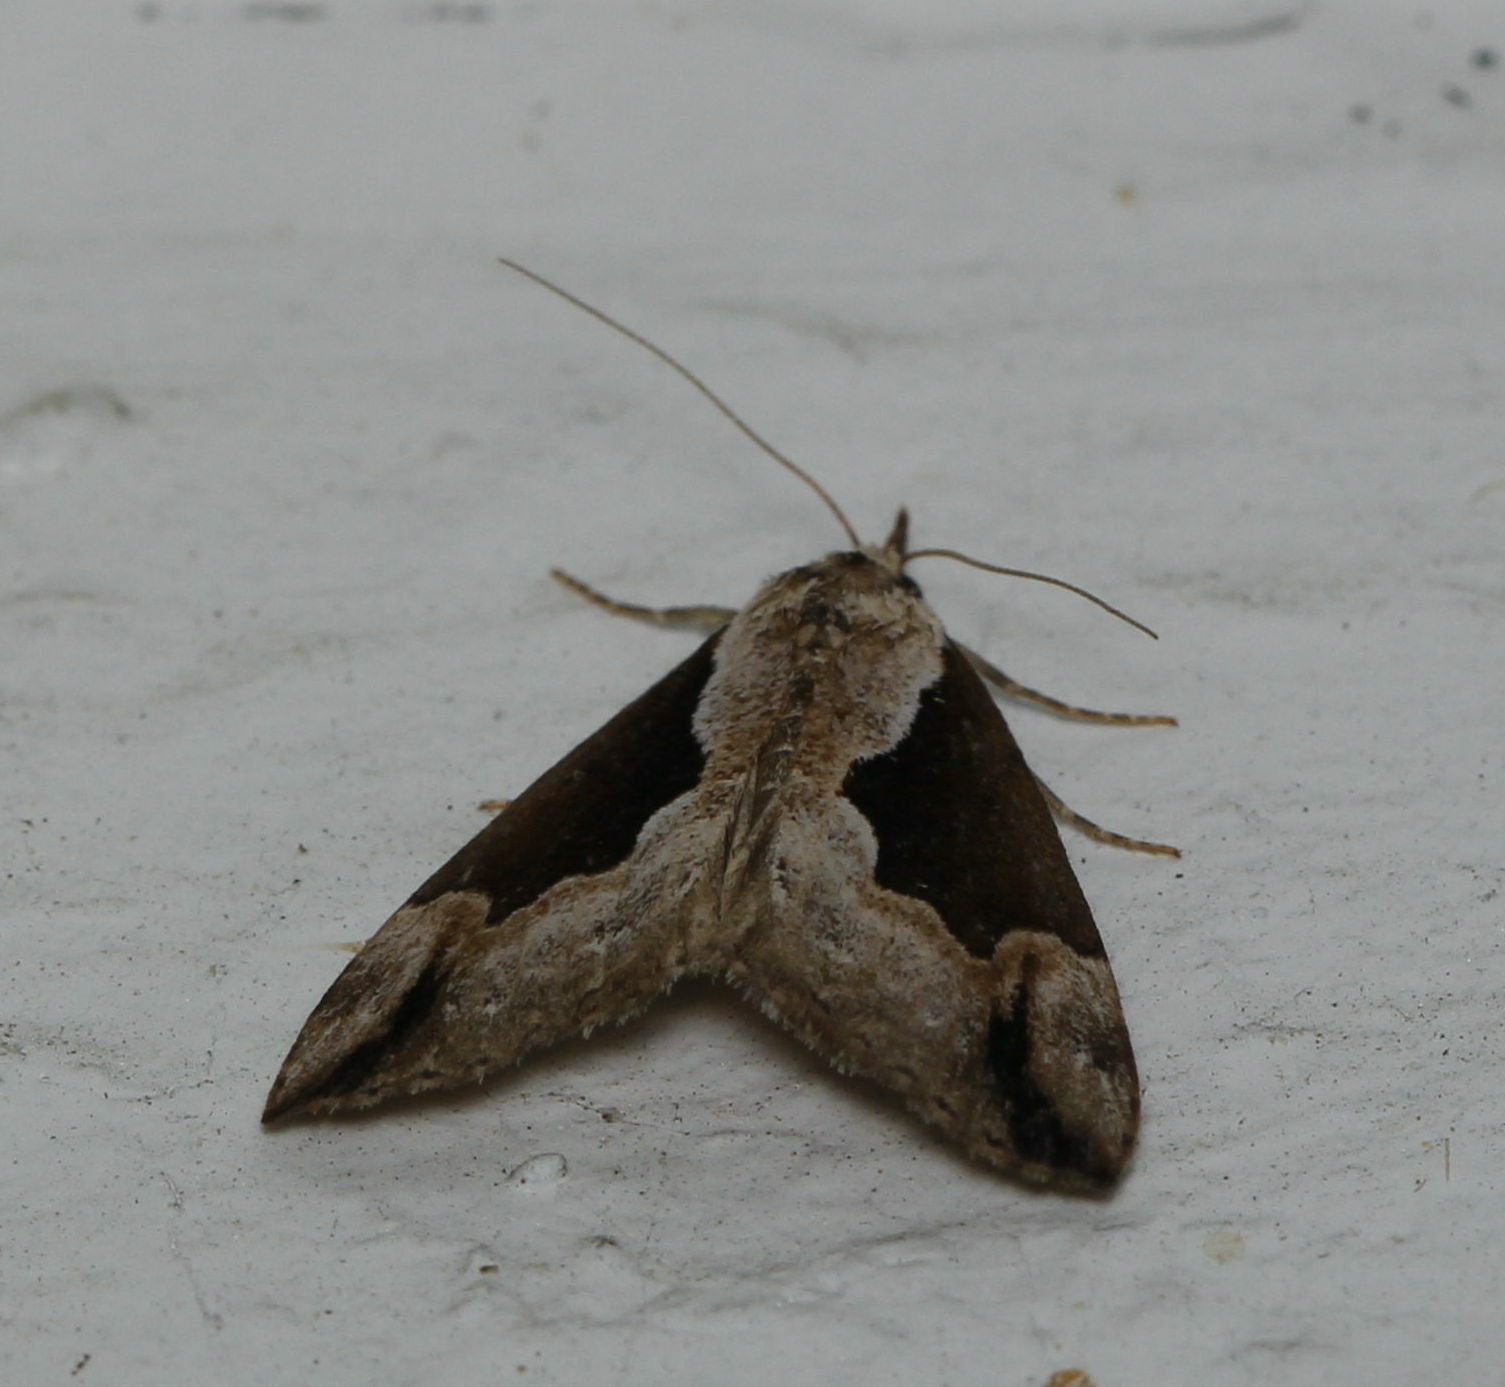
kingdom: Animalia
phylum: Arthropoda
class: Insecta
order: Lepidoptera
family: Erebidae
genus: Hypena
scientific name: Hypena baltimoralis
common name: Baltimore snout
